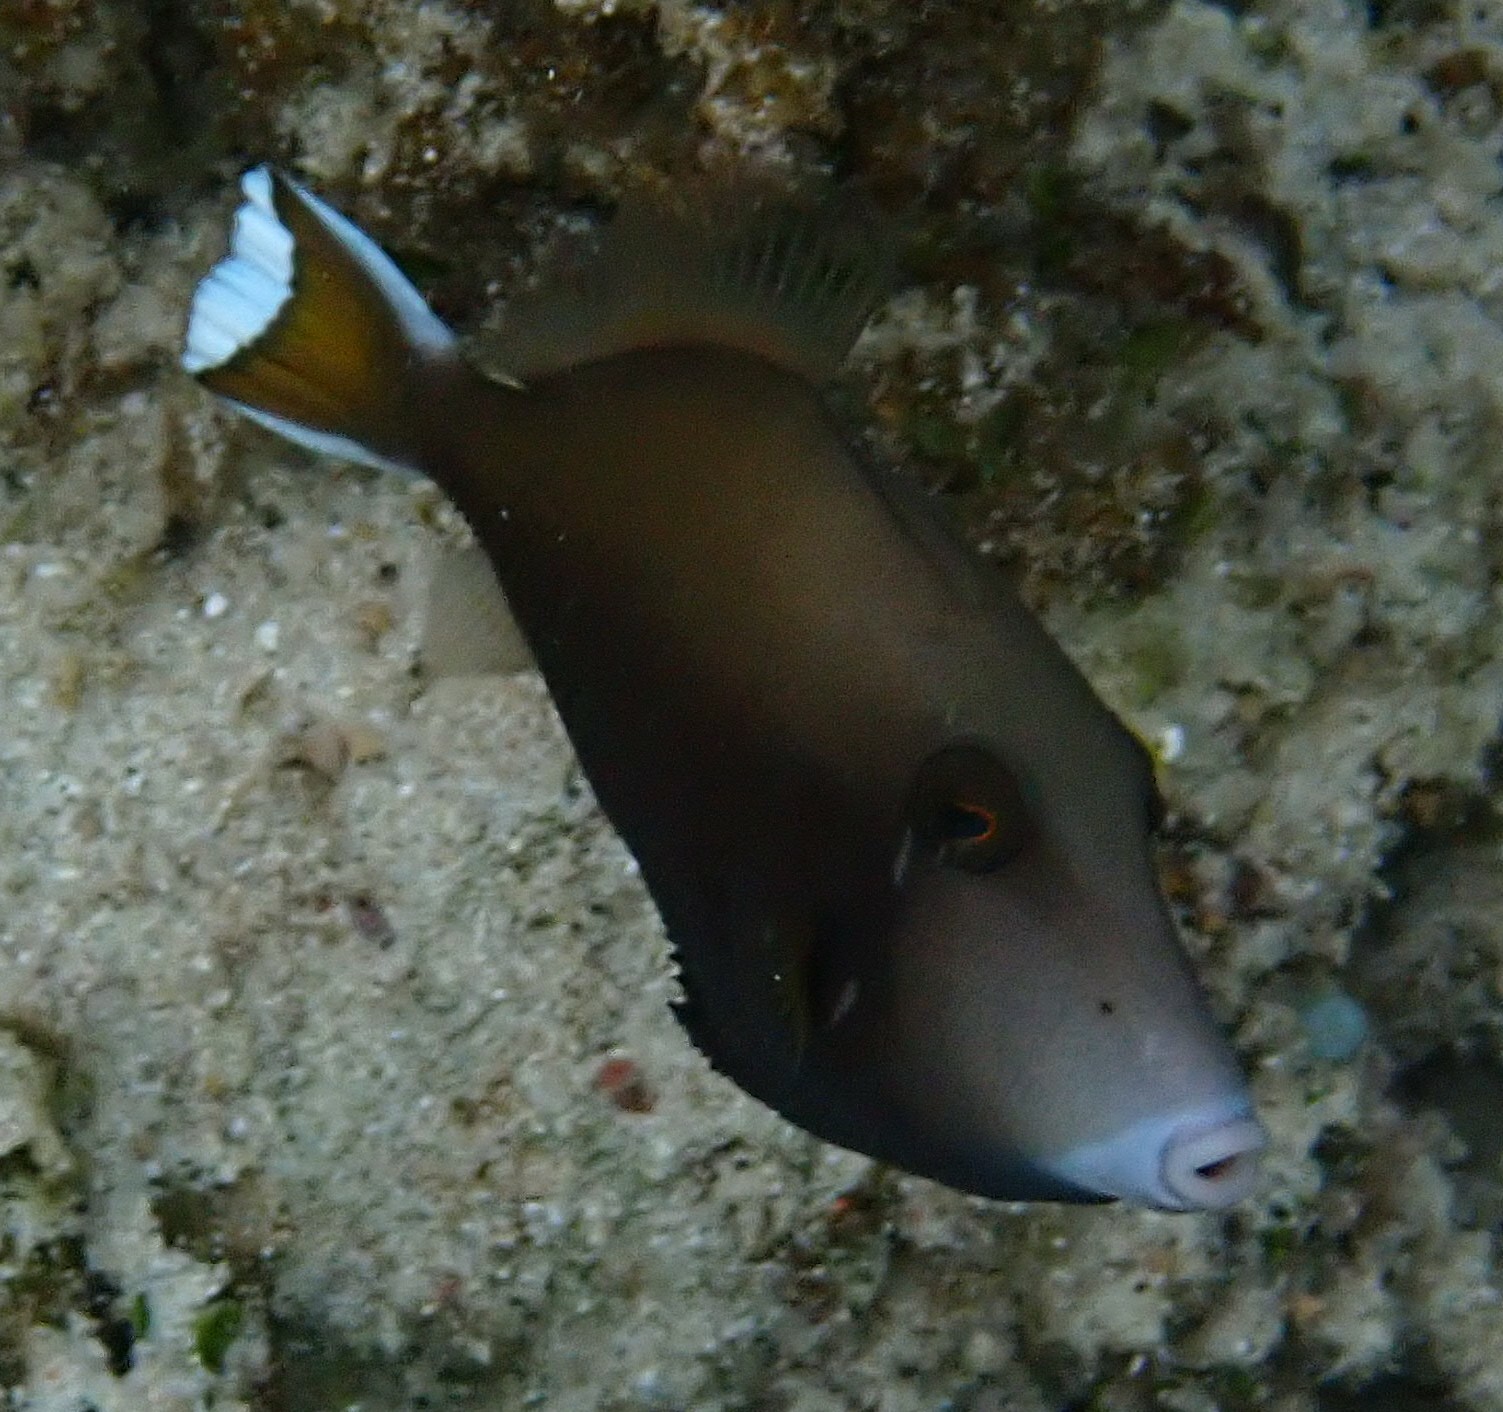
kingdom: Animalia
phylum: Chordata
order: Tetraodontiformes
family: Balistidae
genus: Sufflamen
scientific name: Sufflamen chrysopterum
